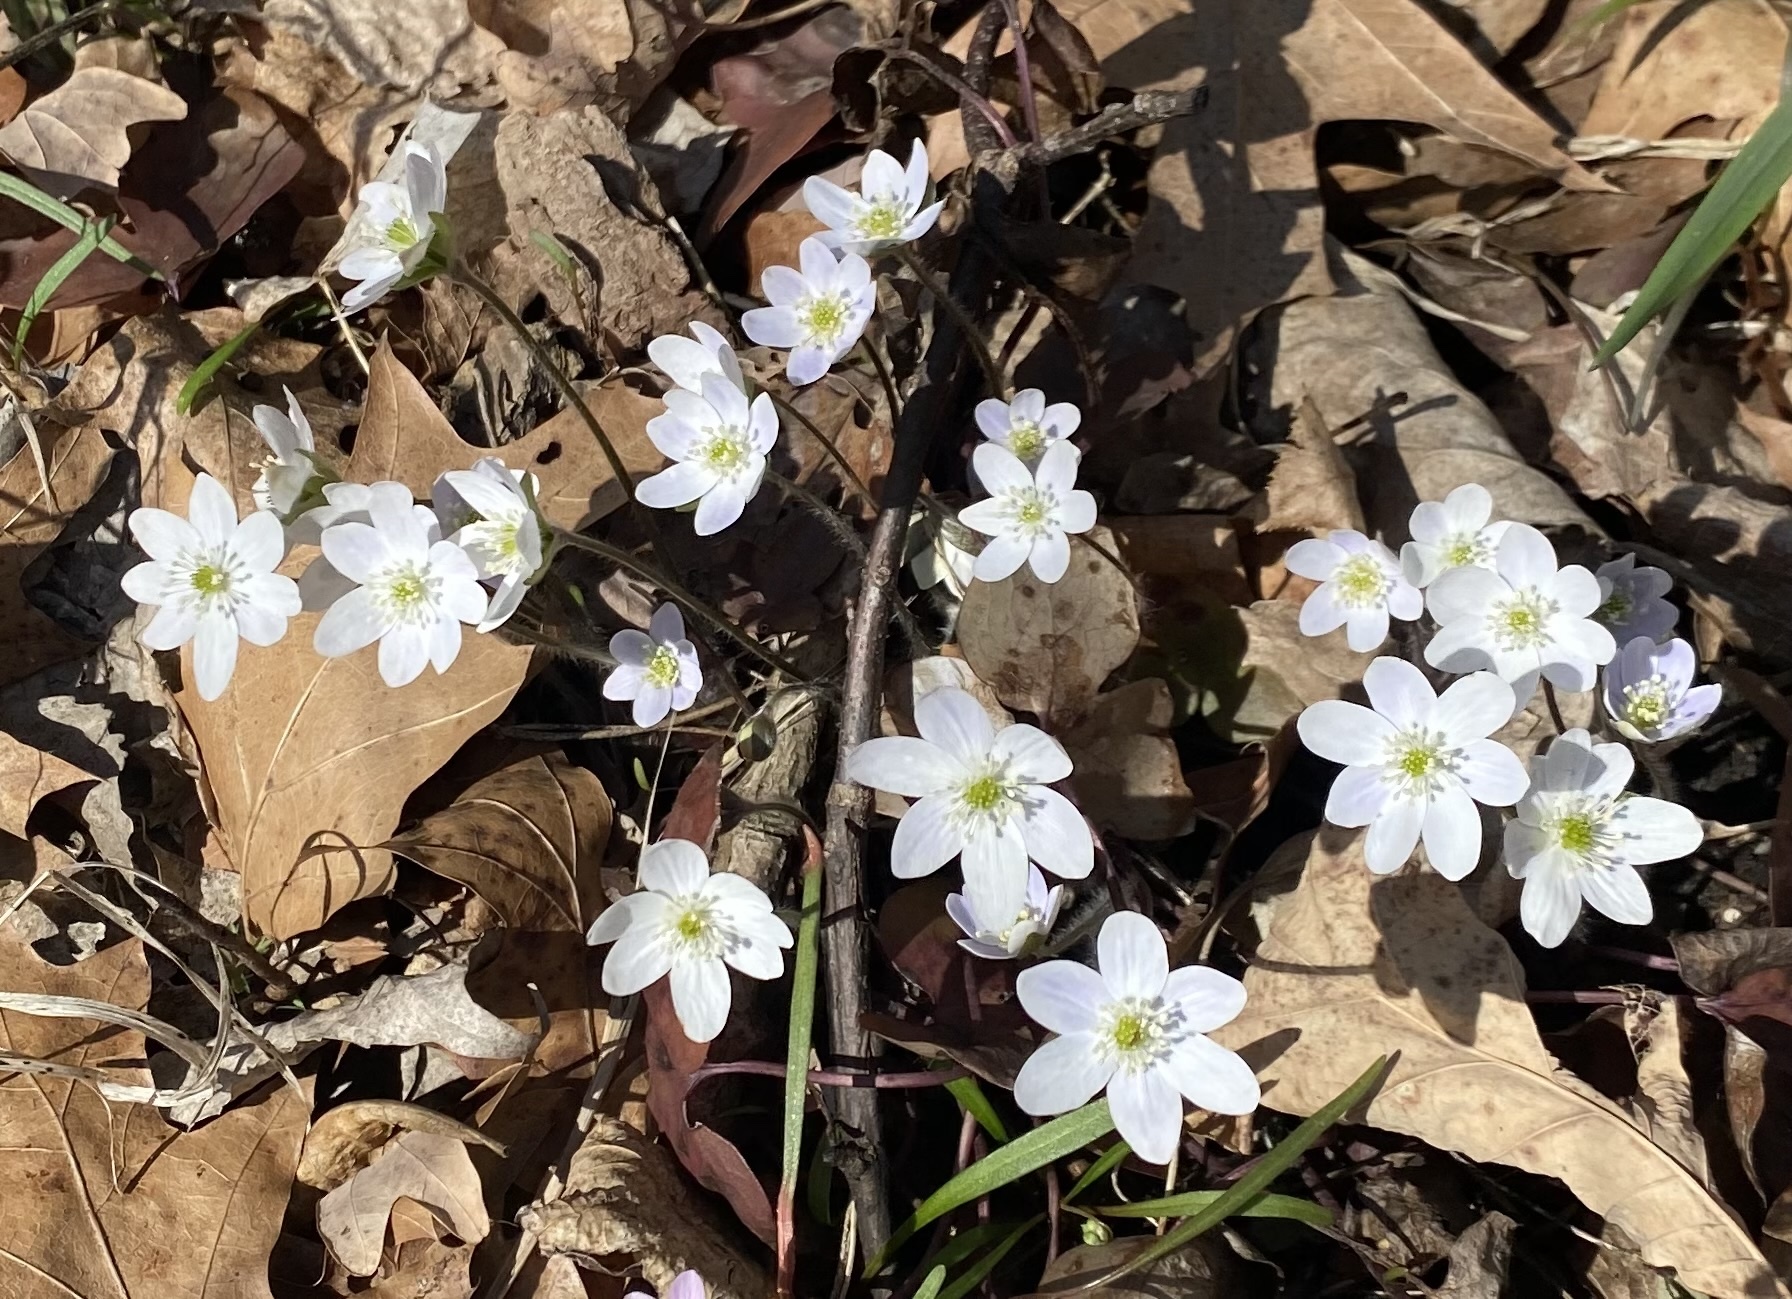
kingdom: Plantae
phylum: Tracheophyta
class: Magnoliopsida
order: Ranunculales
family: Ranunculaceae
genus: Hepatica
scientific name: Hepatica acutiloba
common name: Sharp-lobed hepatica
